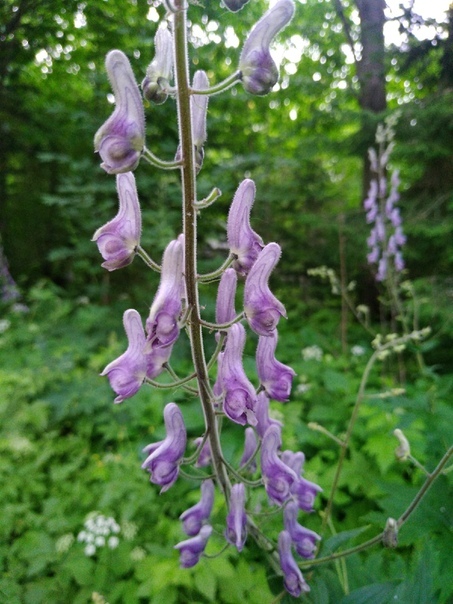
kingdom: Plantae
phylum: Tracheophyta
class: Magnoliopsida
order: Ranunculales
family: Ranunculaceae
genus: Aconitum
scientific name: Aconitum septentrionale
